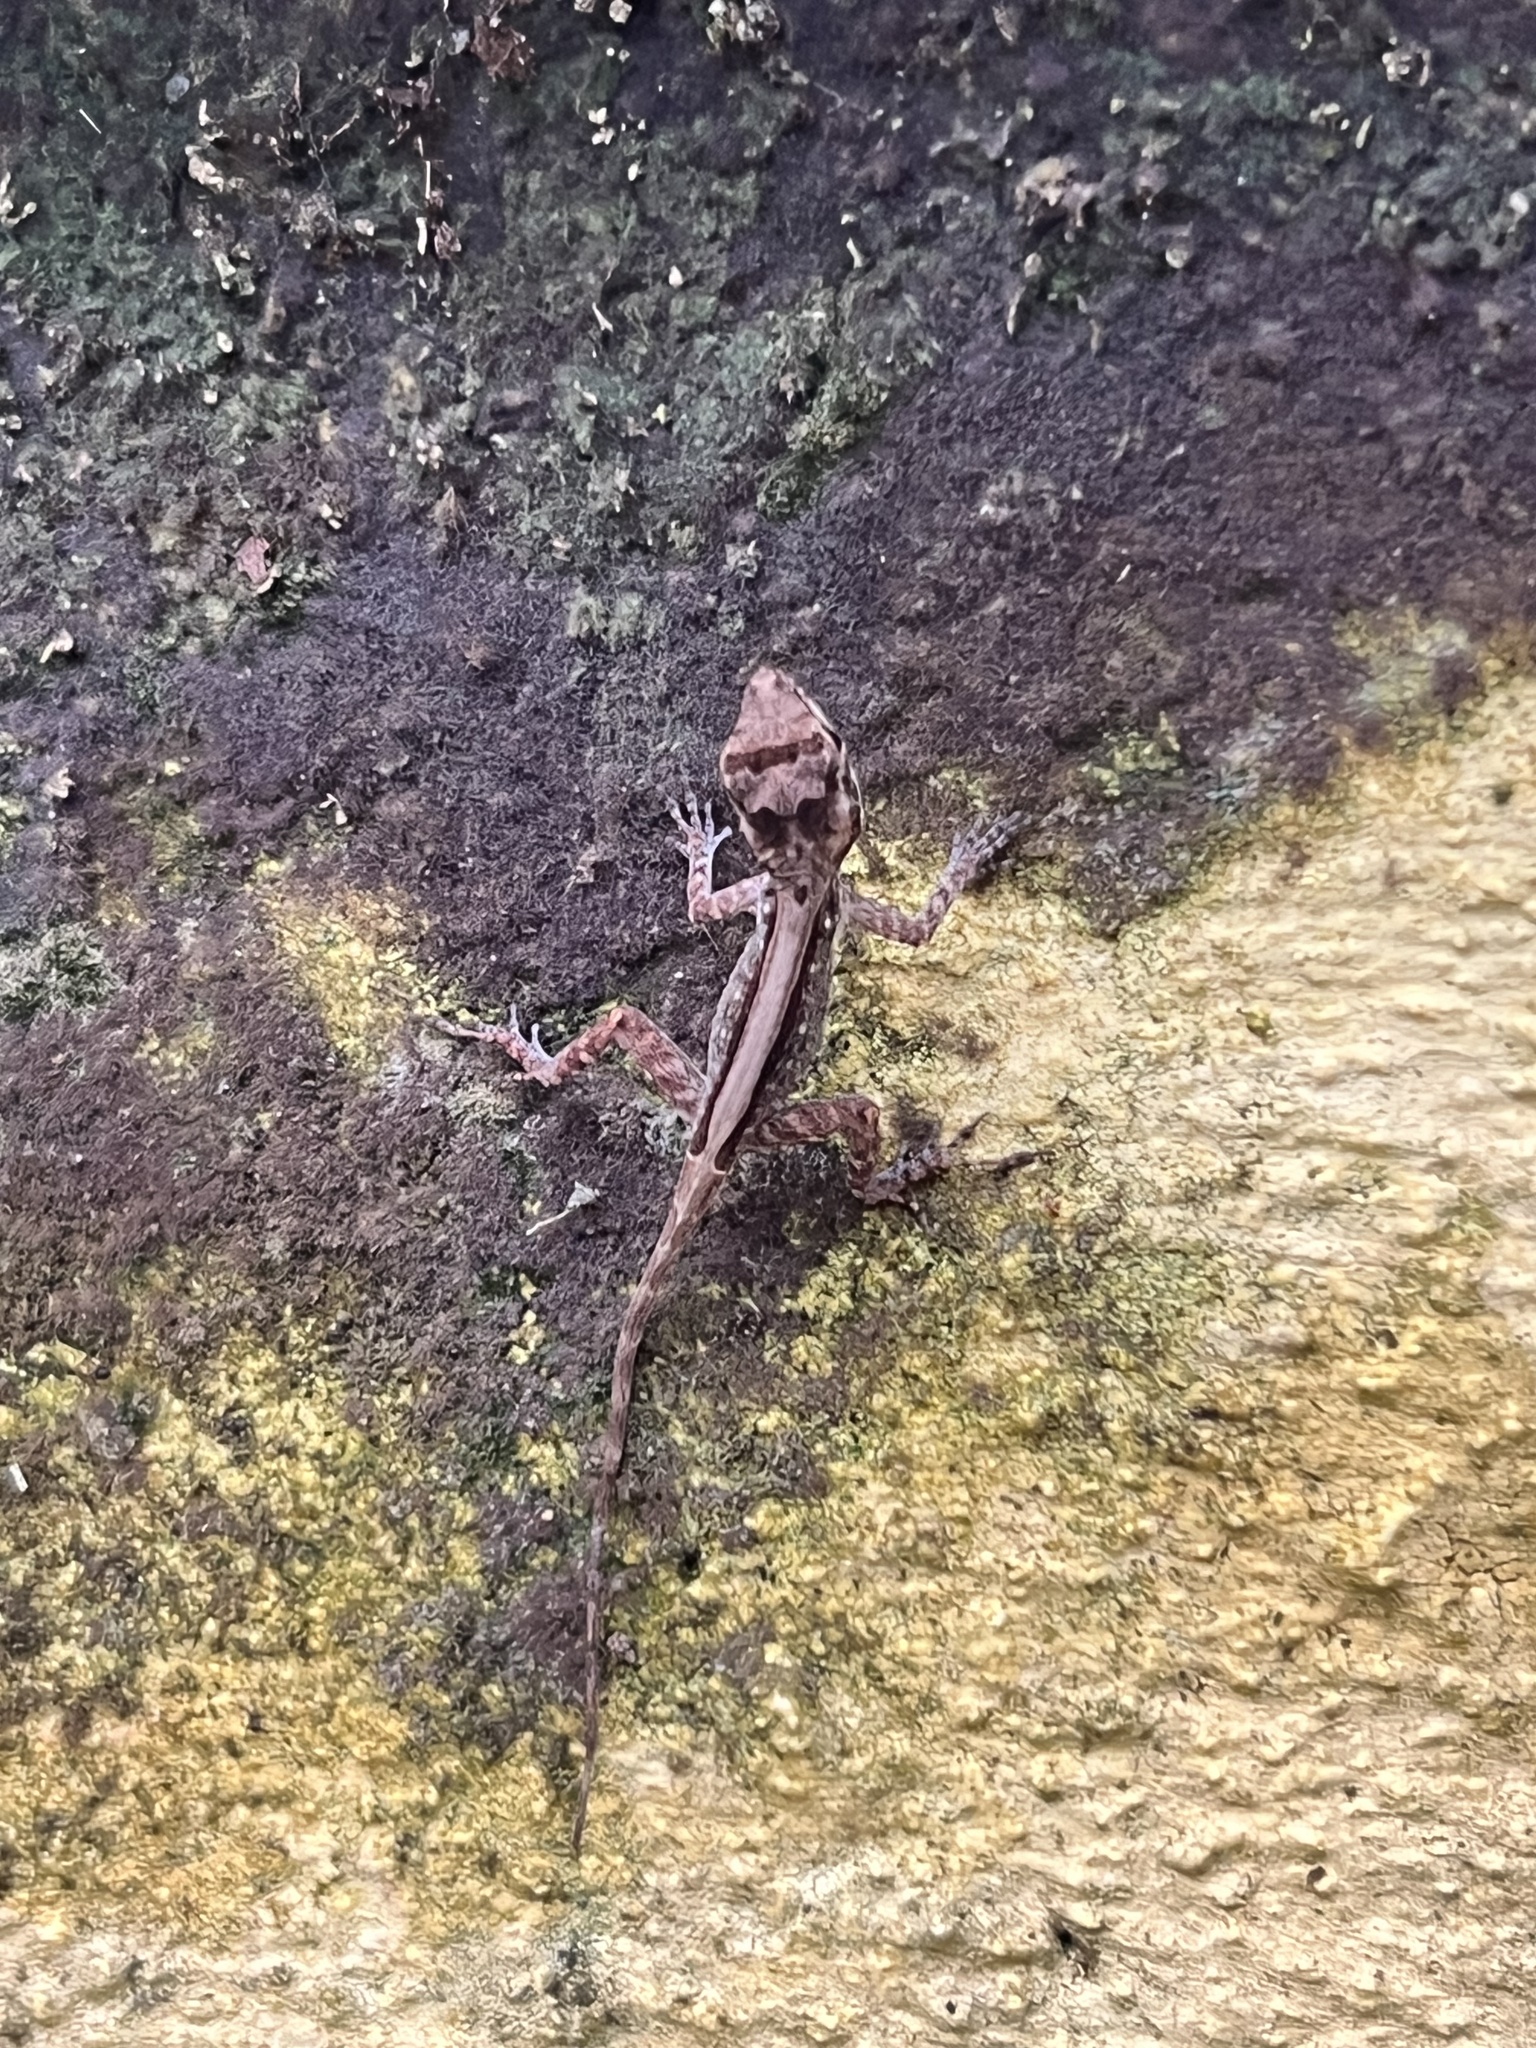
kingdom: Animalia
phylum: Chordata
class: Squamata
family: Dactyloidae
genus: Anolis
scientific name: Anolis cristatellus
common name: Crested anole
